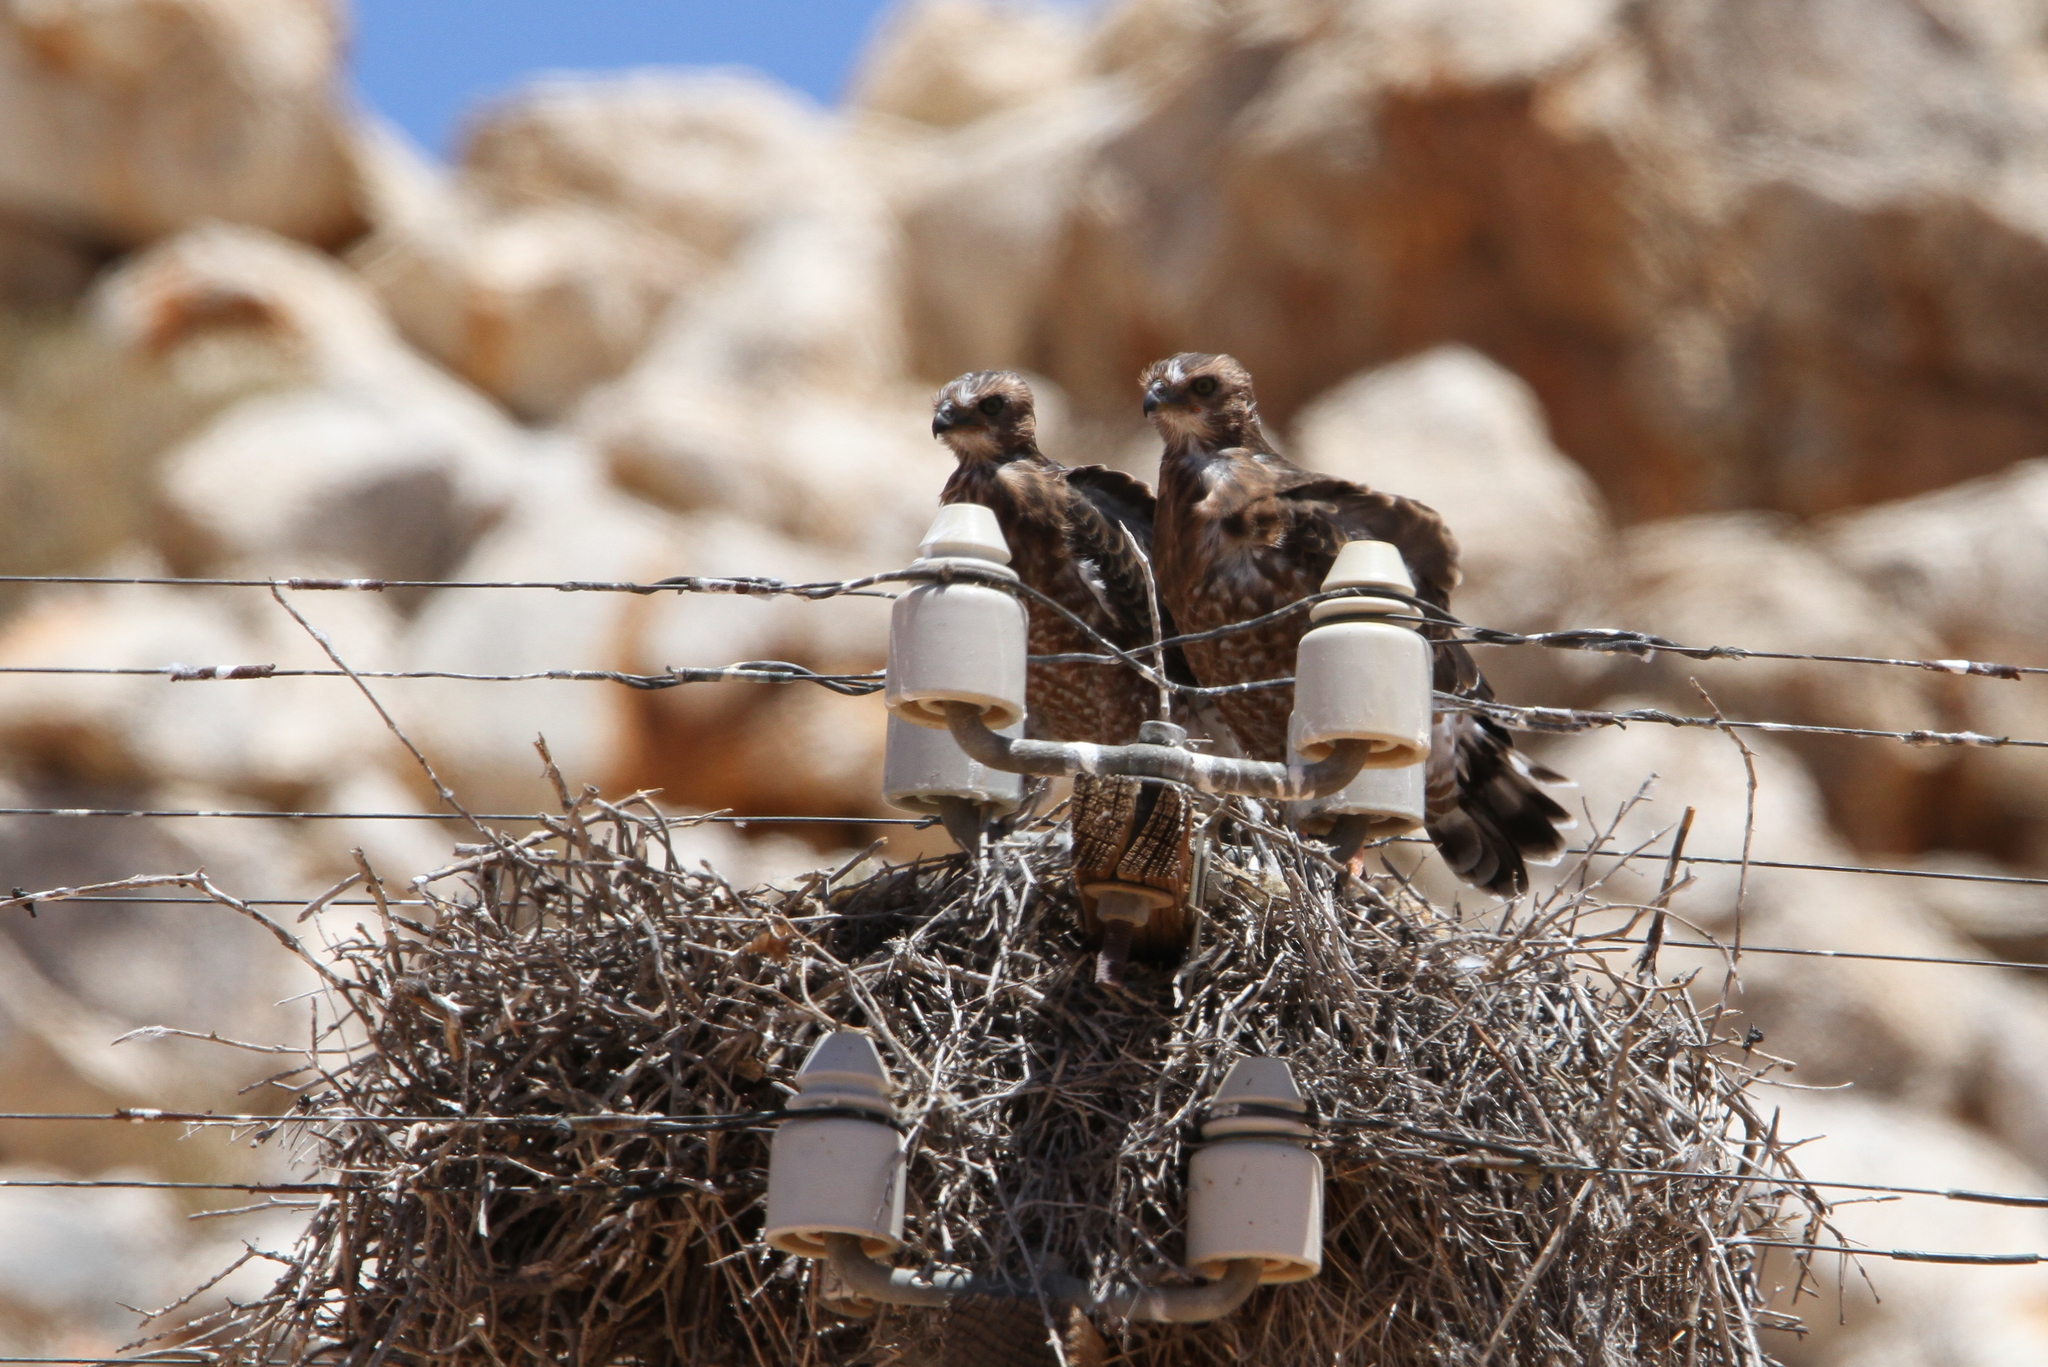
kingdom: Animalia
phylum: Chordata
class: Aves
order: Accipitriformes
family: Accipitridae
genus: Melierax
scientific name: Melierax canorus
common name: Pale chanting-goshawk
